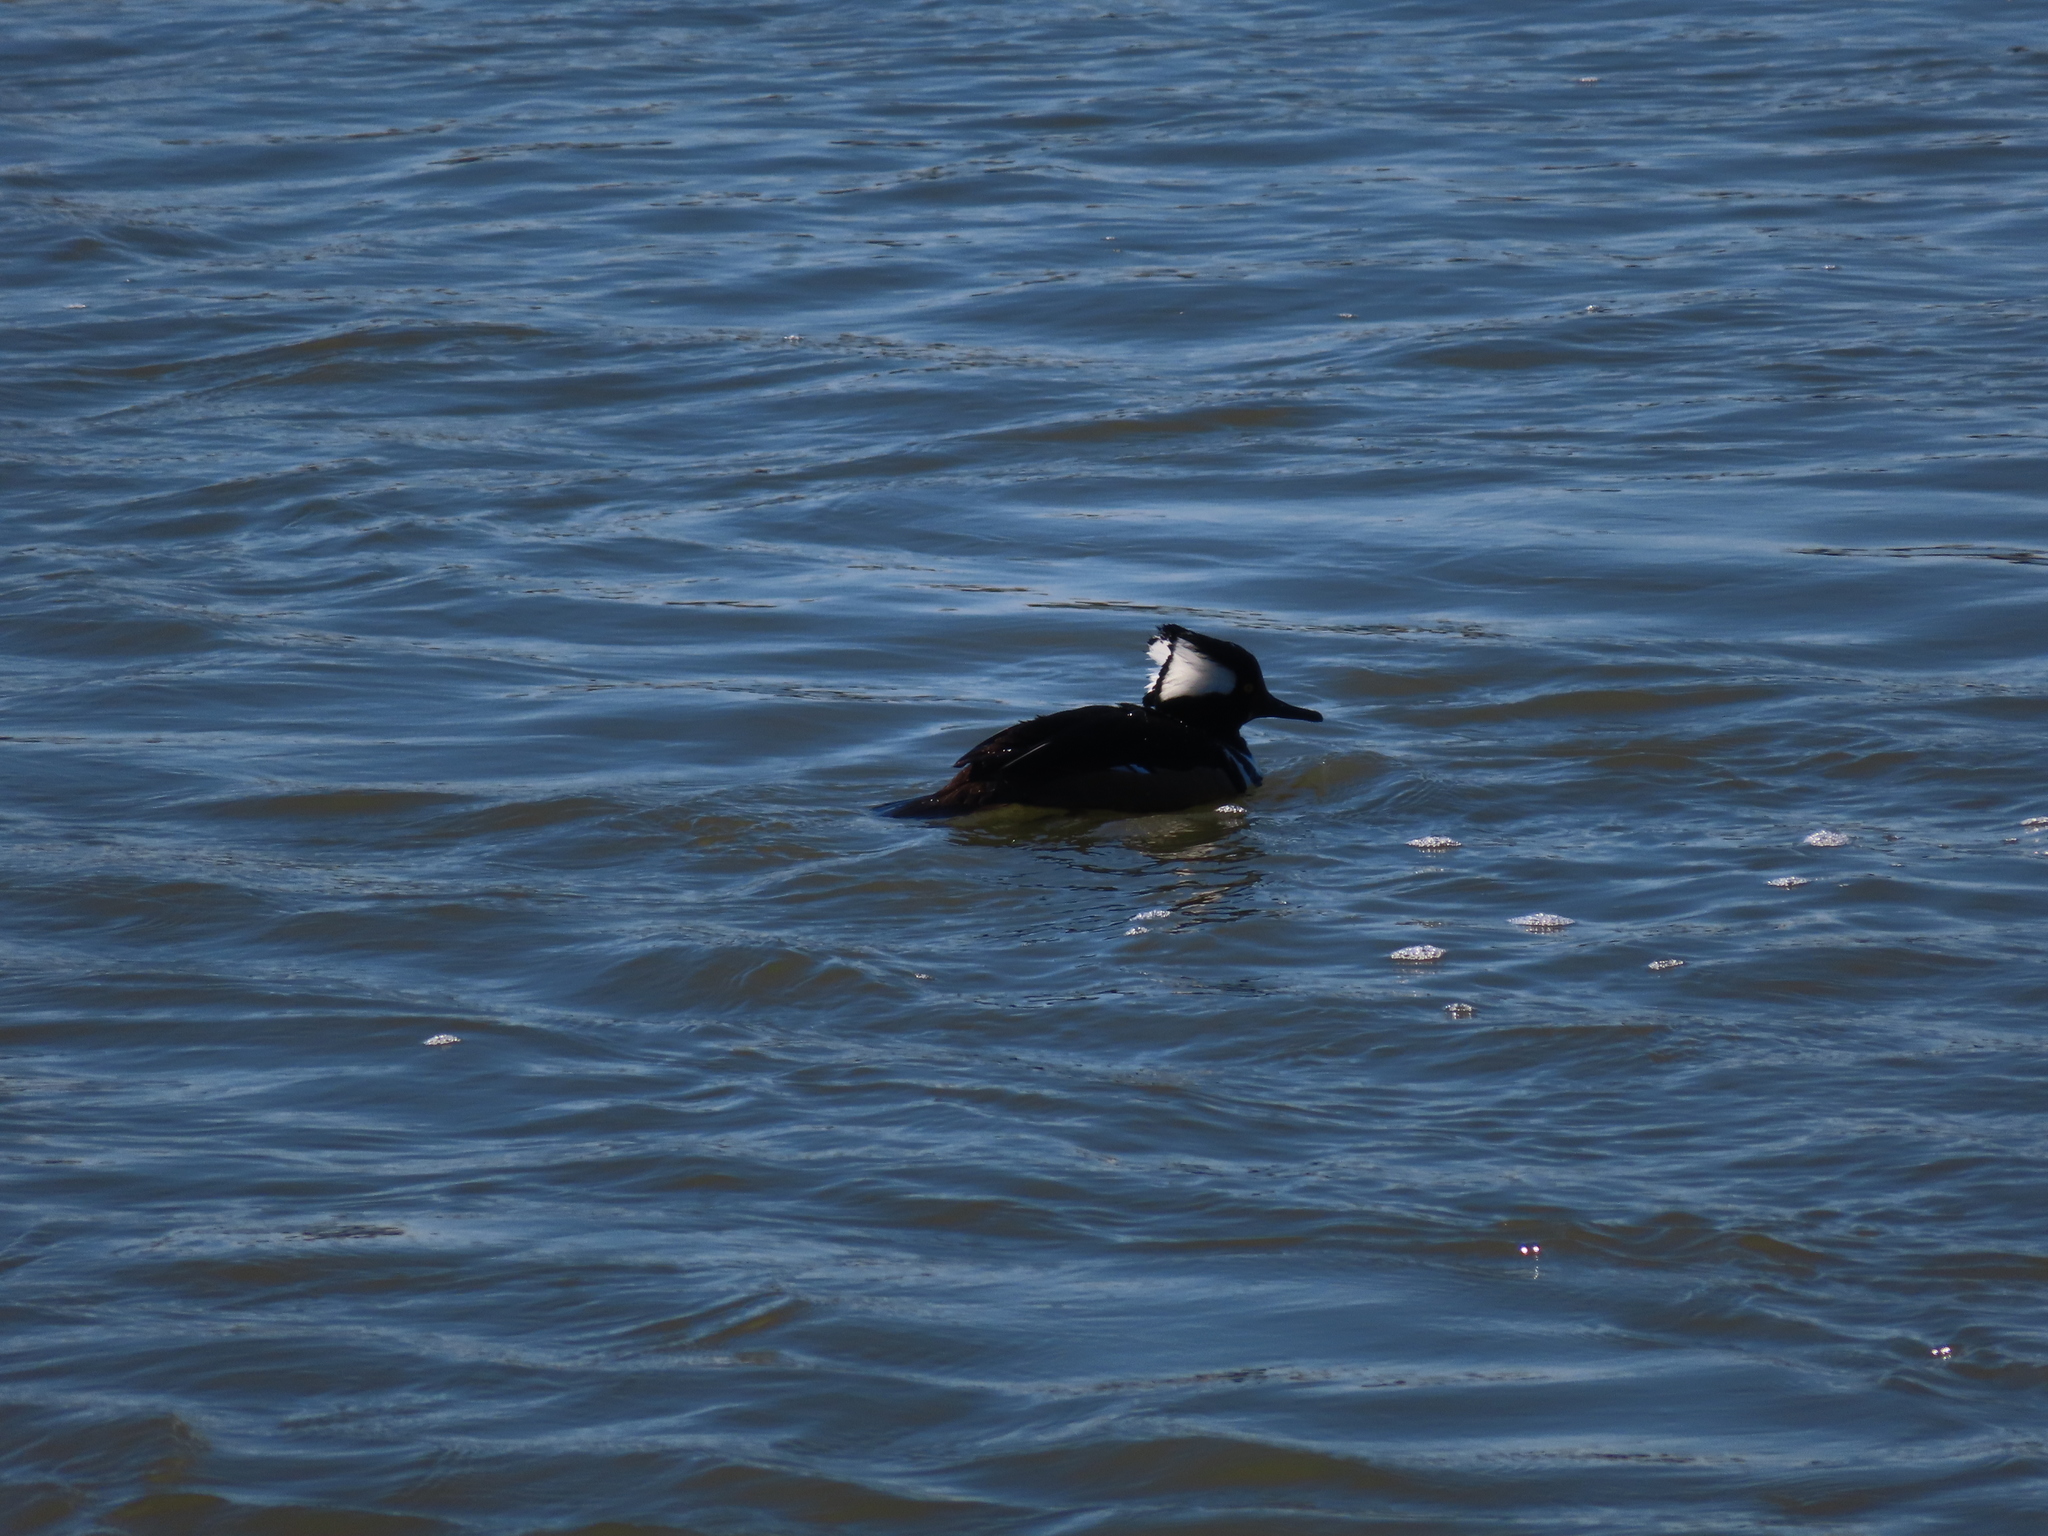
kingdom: Animalia
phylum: Chordata
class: Aves
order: Anseriformes
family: Anatidae
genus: Lophodytes
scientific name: Lophodytes cucullatus
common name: Hooded merganser
